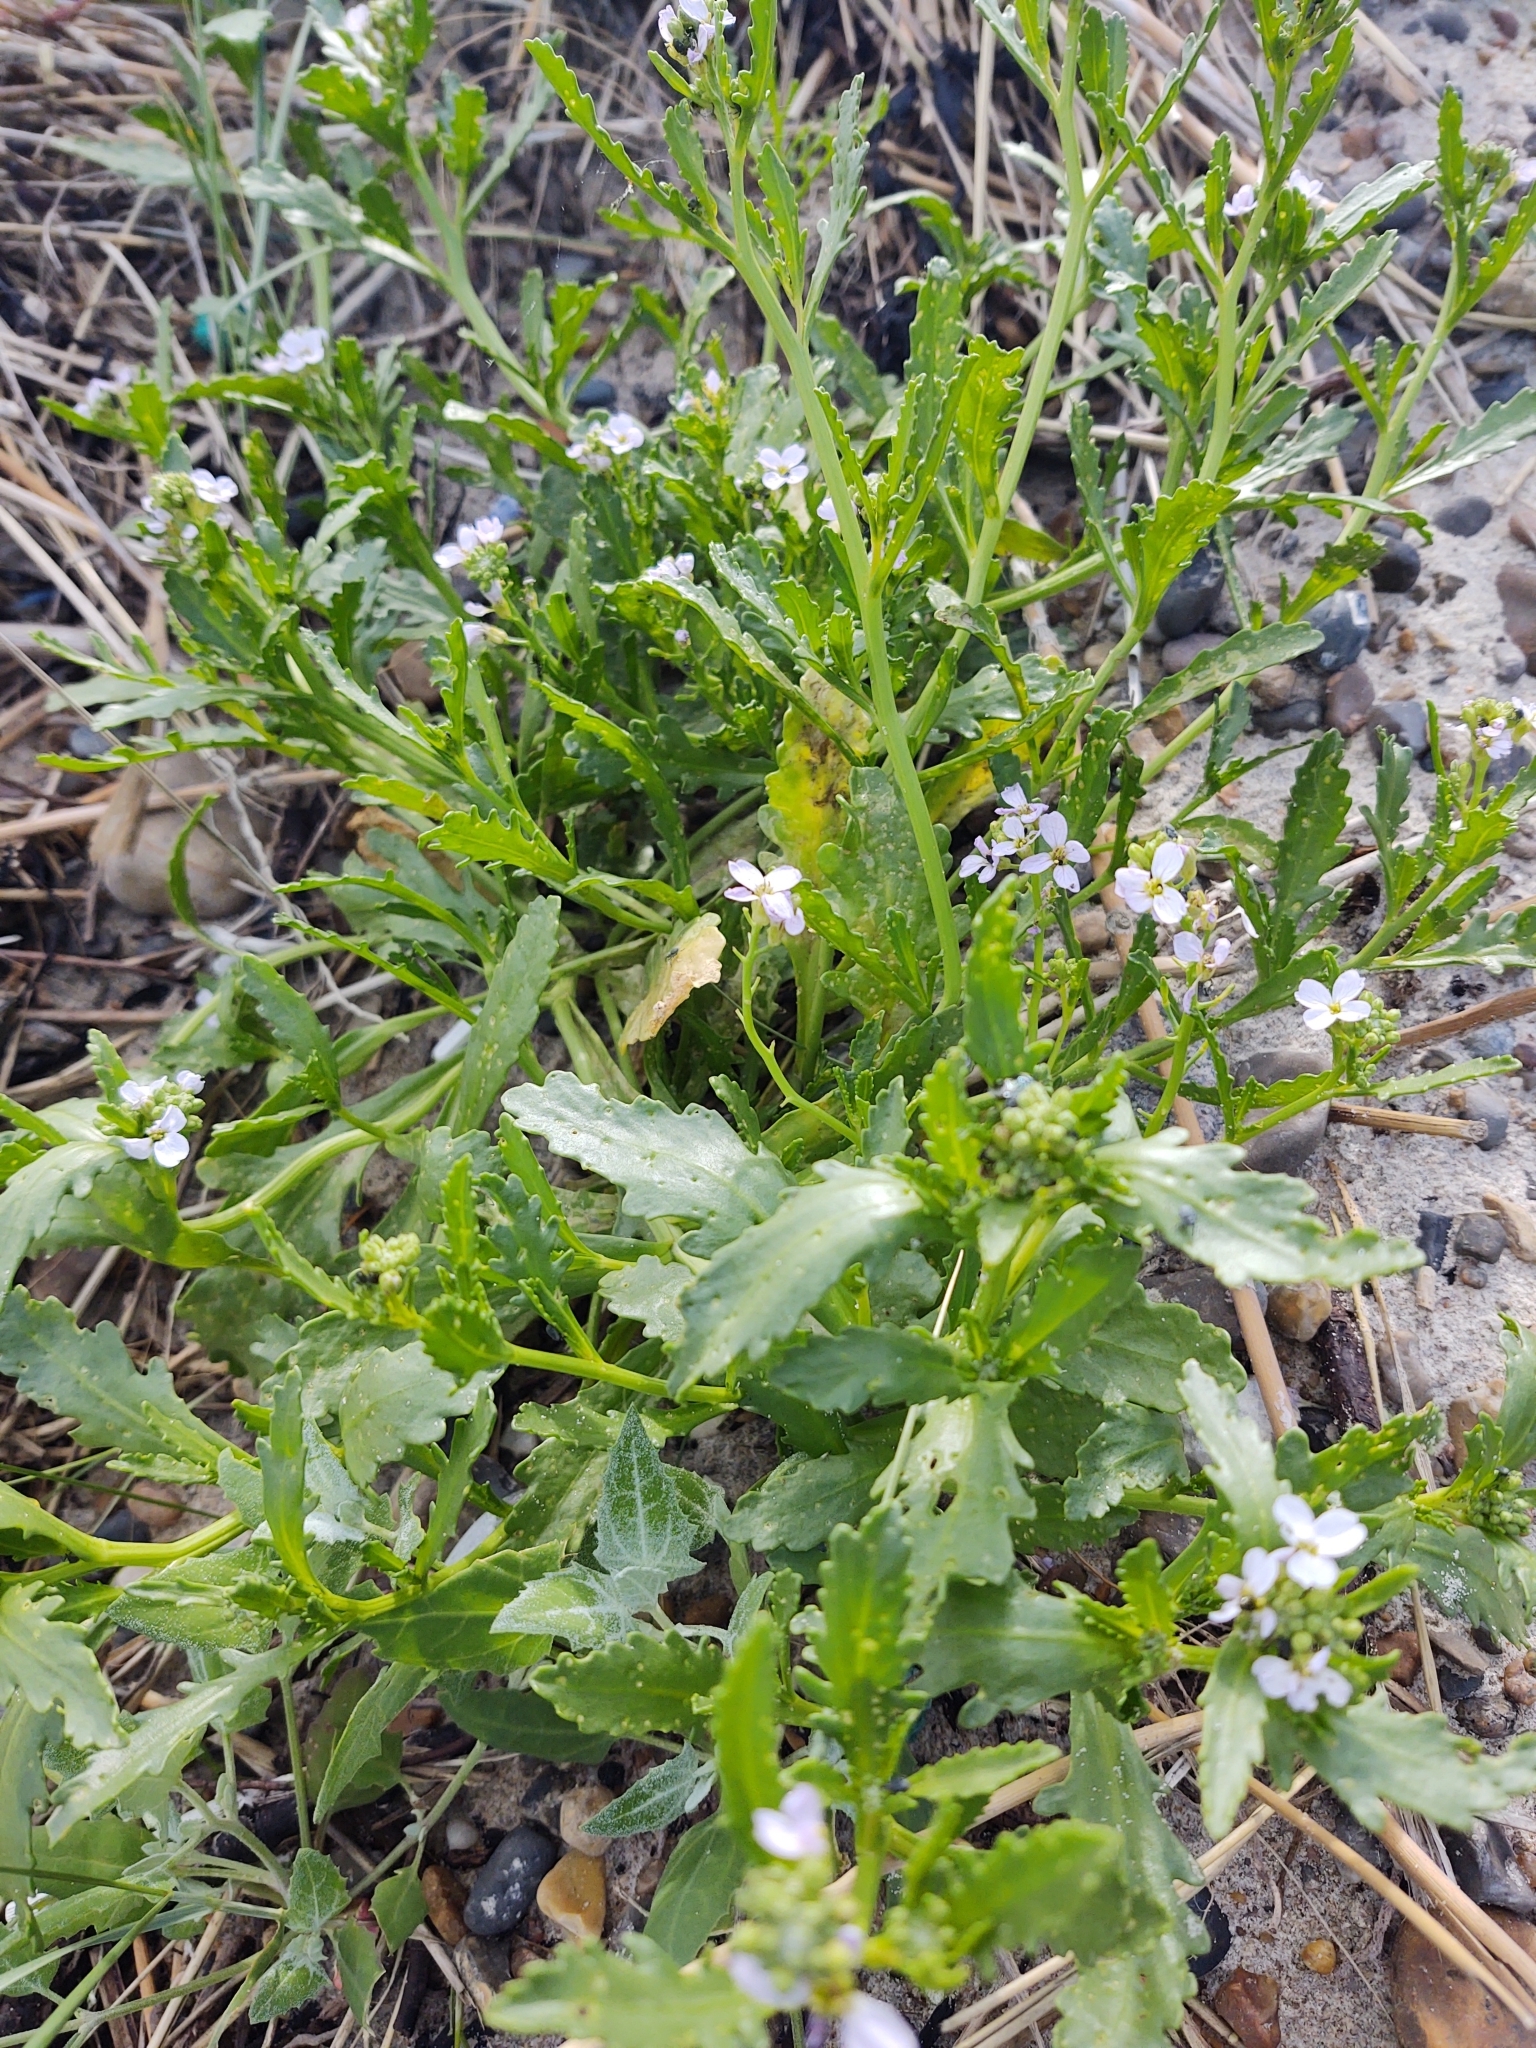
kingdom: Plantae
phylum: Tracheophyta
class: Magnoliopsida
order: Brassicales
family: Brassicaceae
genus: Cakile
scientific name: Cakile maritima
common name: Sea rocket
